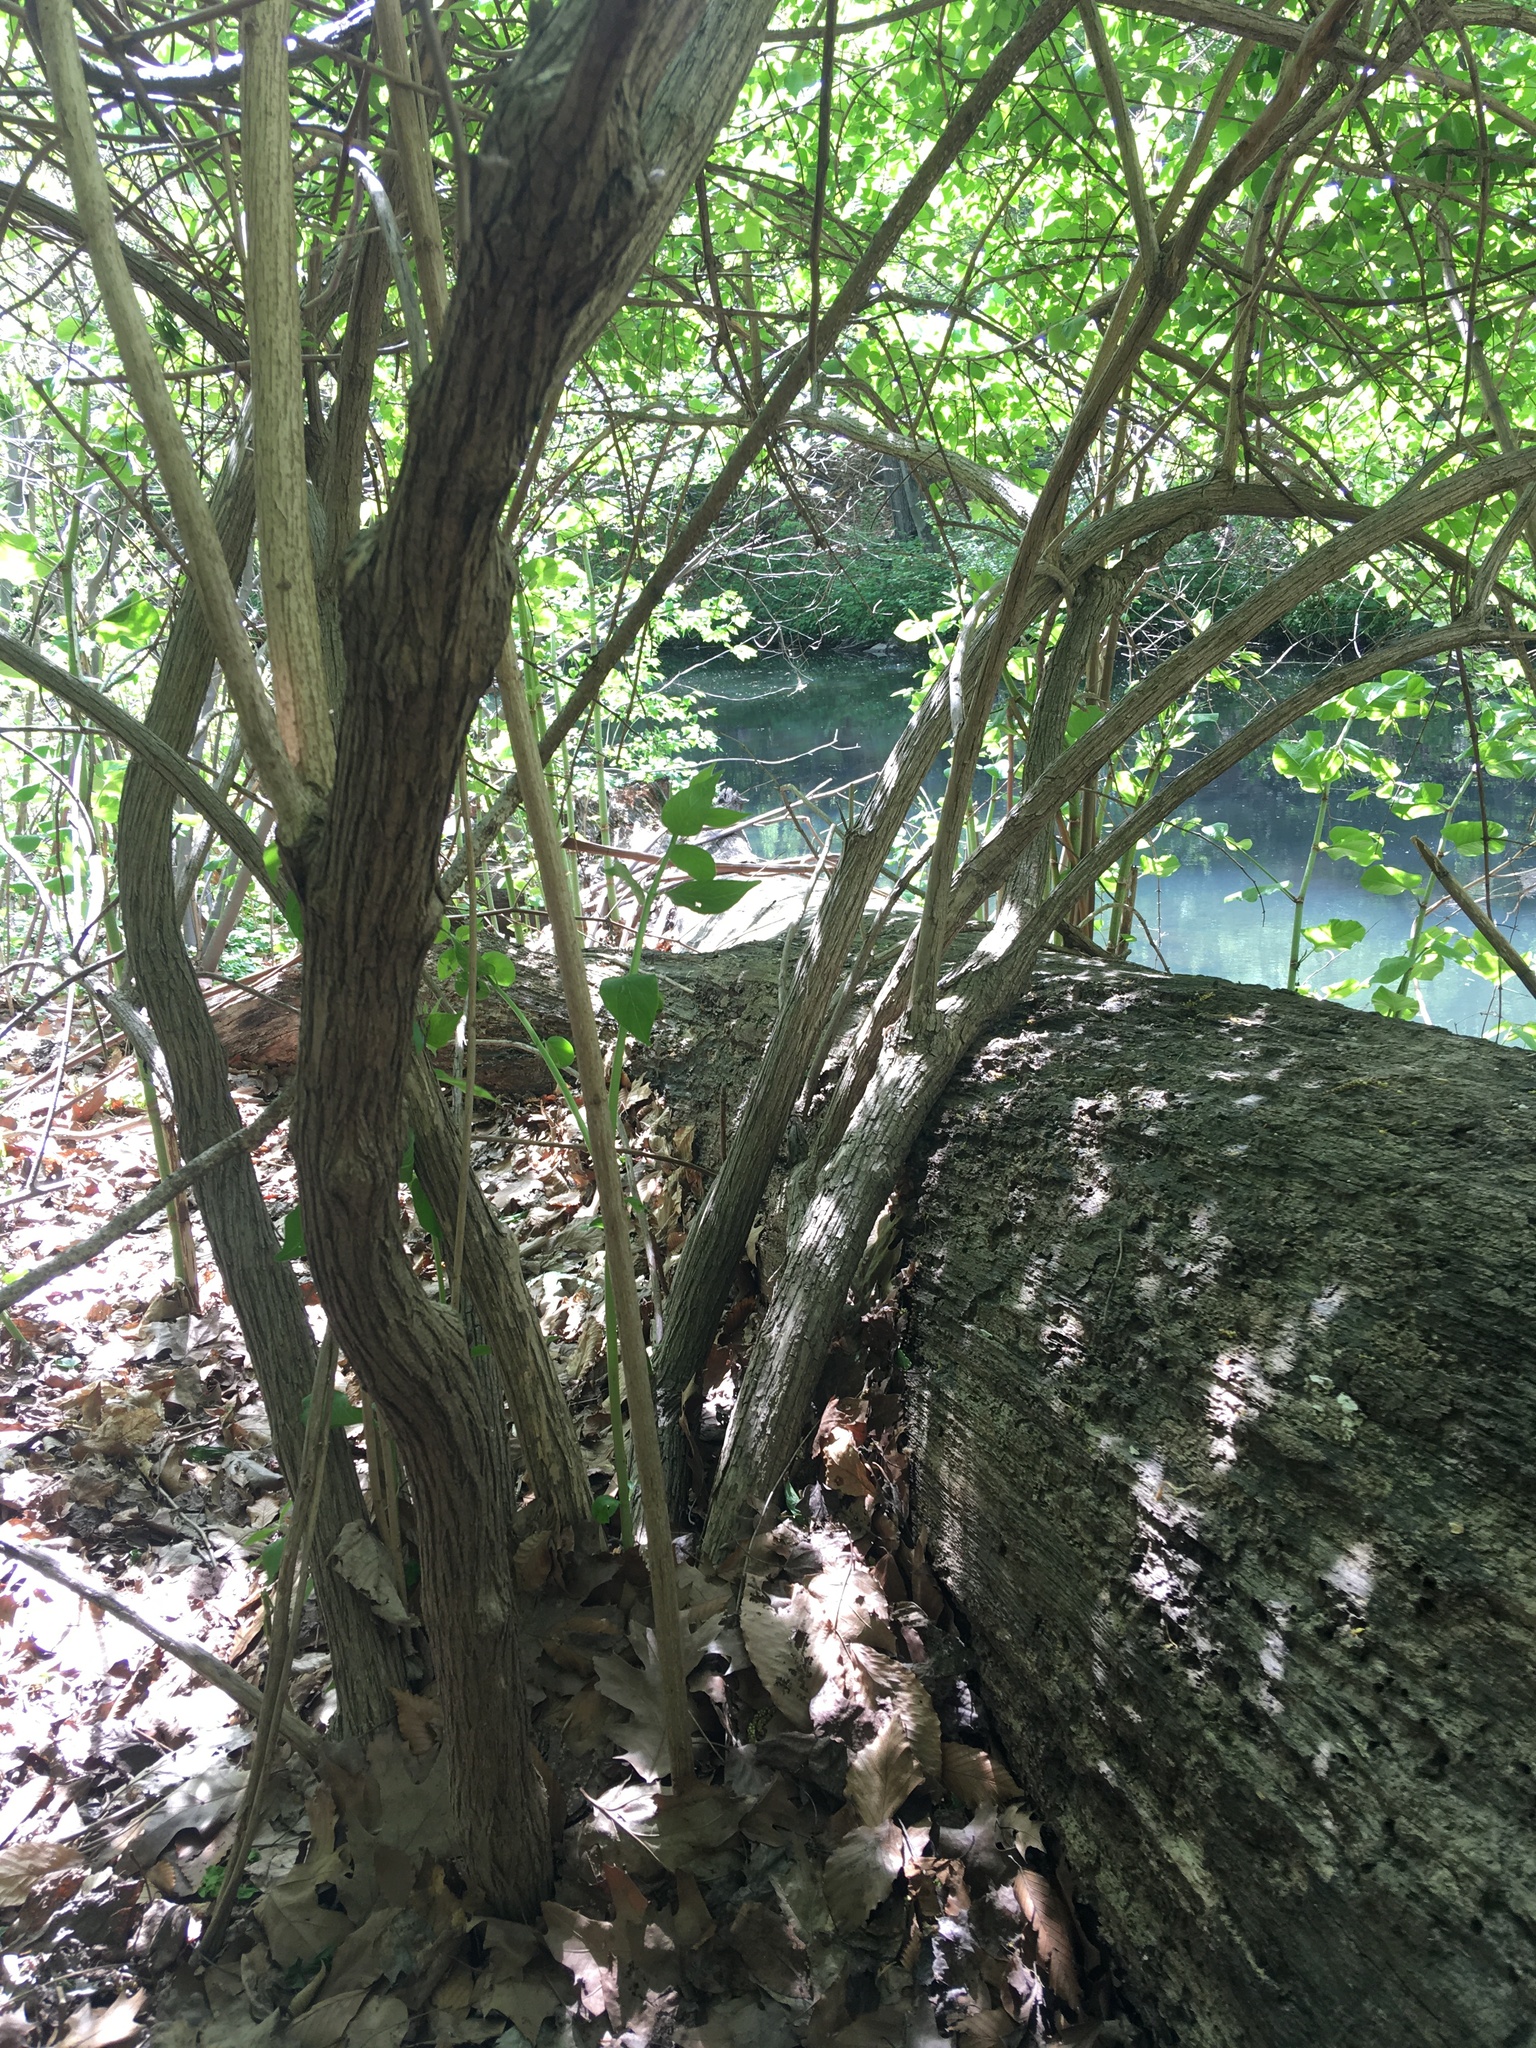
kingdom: Plantae
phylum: Tracheophyta
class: Magnoliopsida
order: Dipsacales
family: Caprifoliaceae
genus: Lonicera
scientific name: Lonicera maackii
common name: Amur honeysuckle
